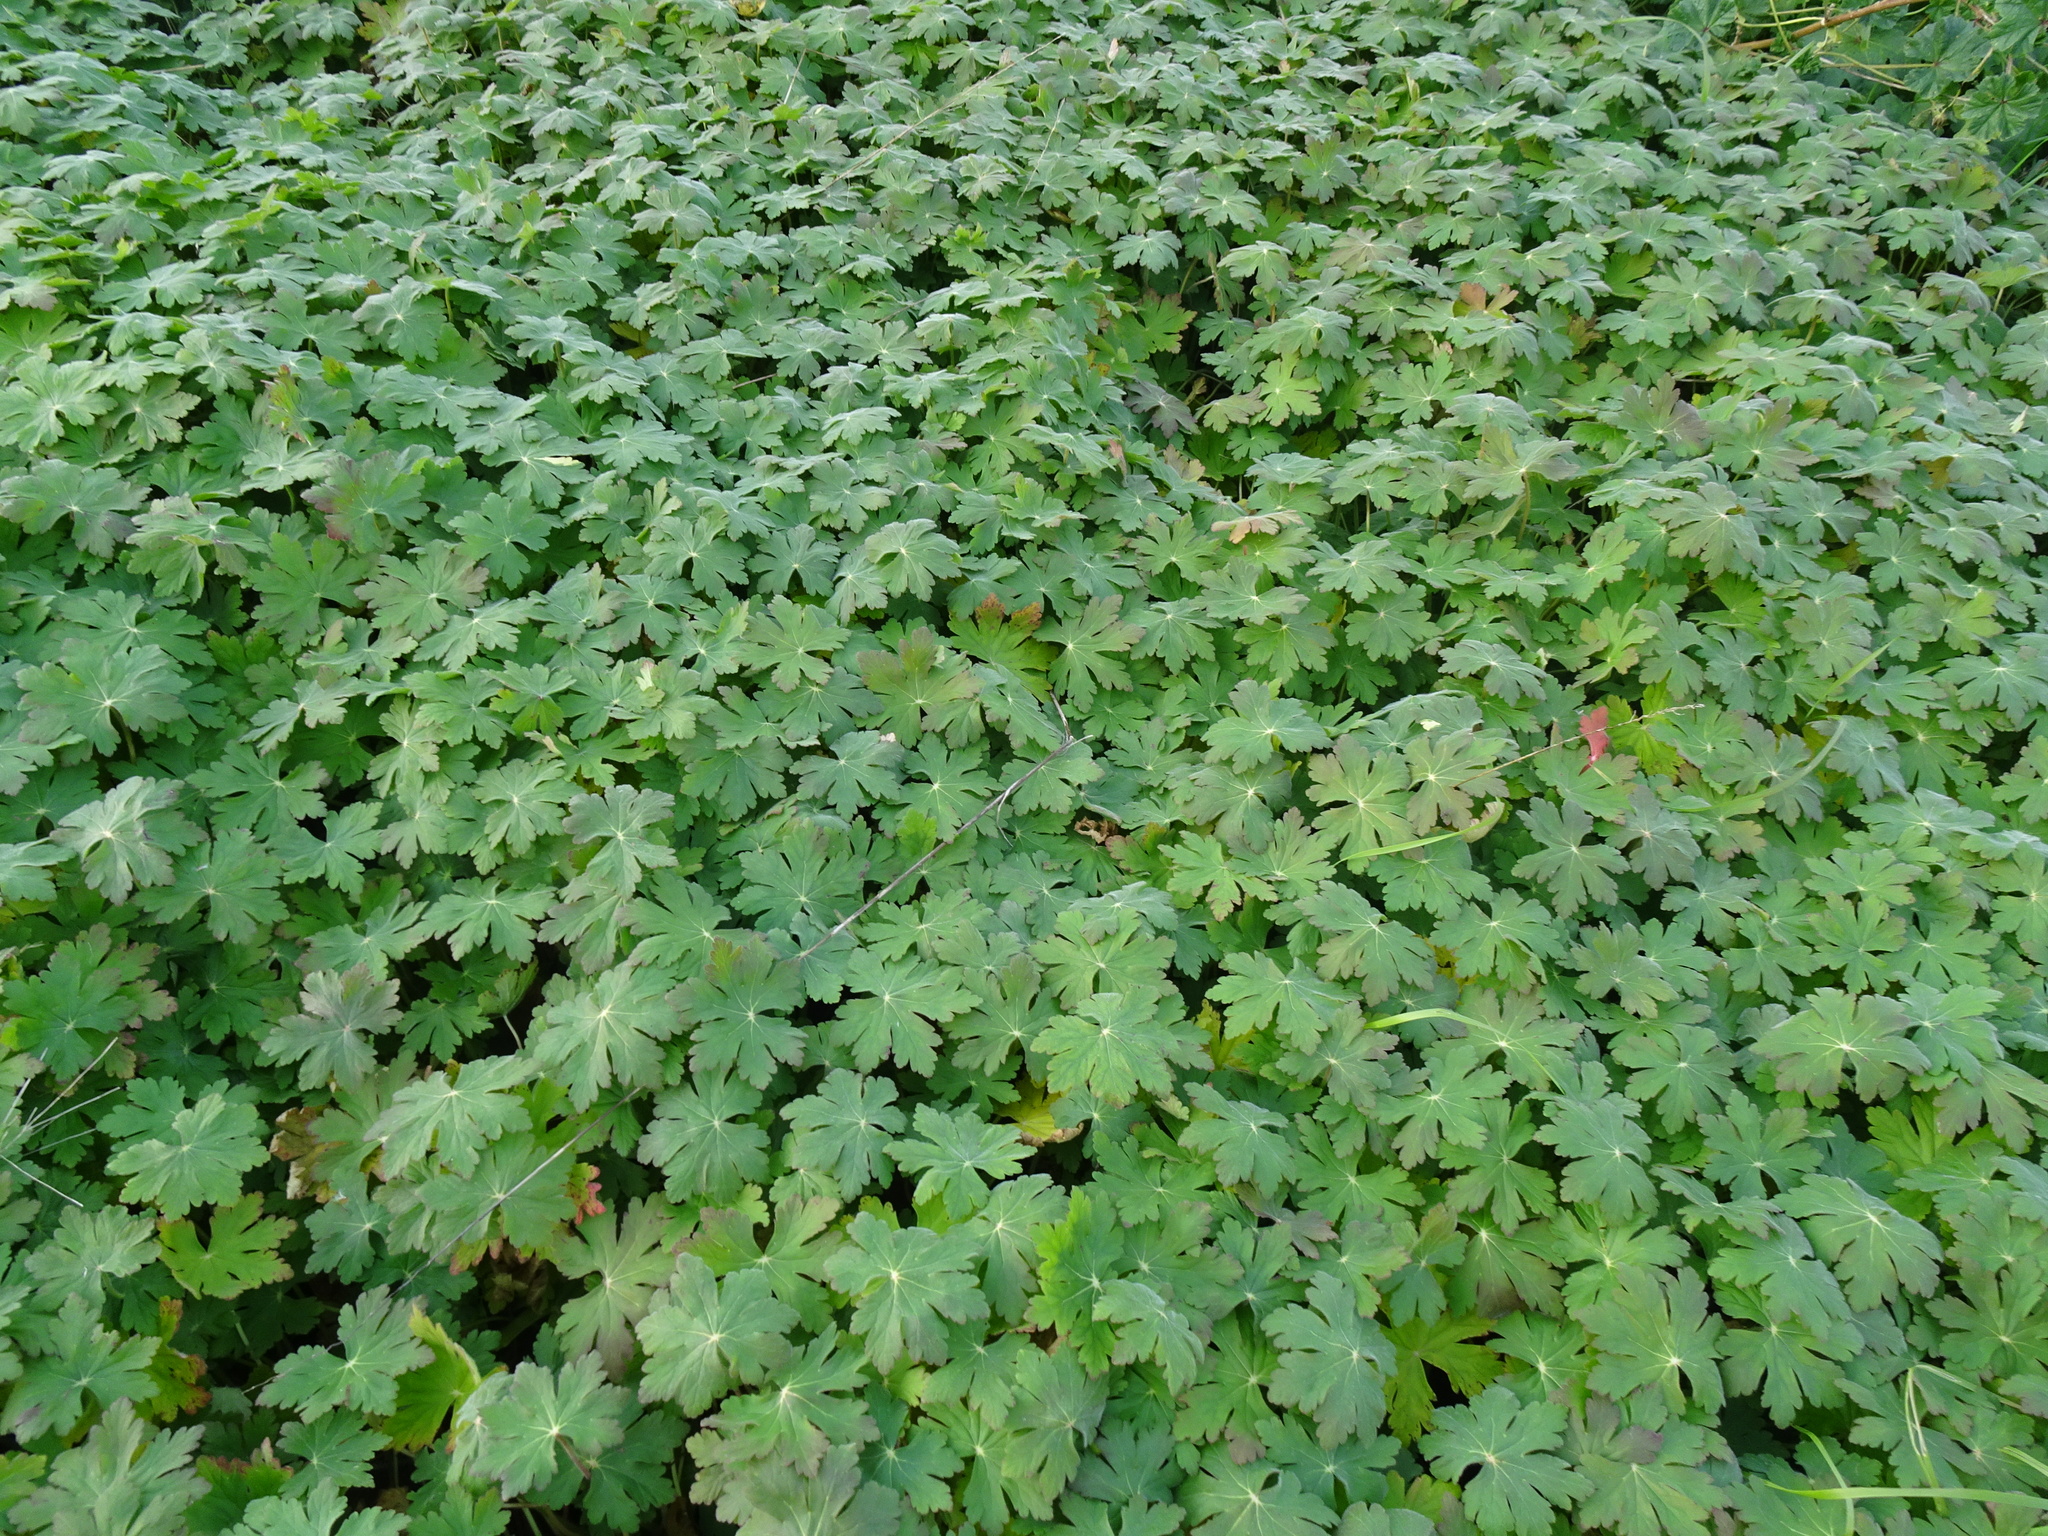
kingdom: Plantae
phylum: Tracheophyta
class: Magnoliopsida
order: Geraniales
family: Geraniaceae
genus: Geranium
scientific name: Geranium macrorrhizum
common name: Rock crane's-bill
